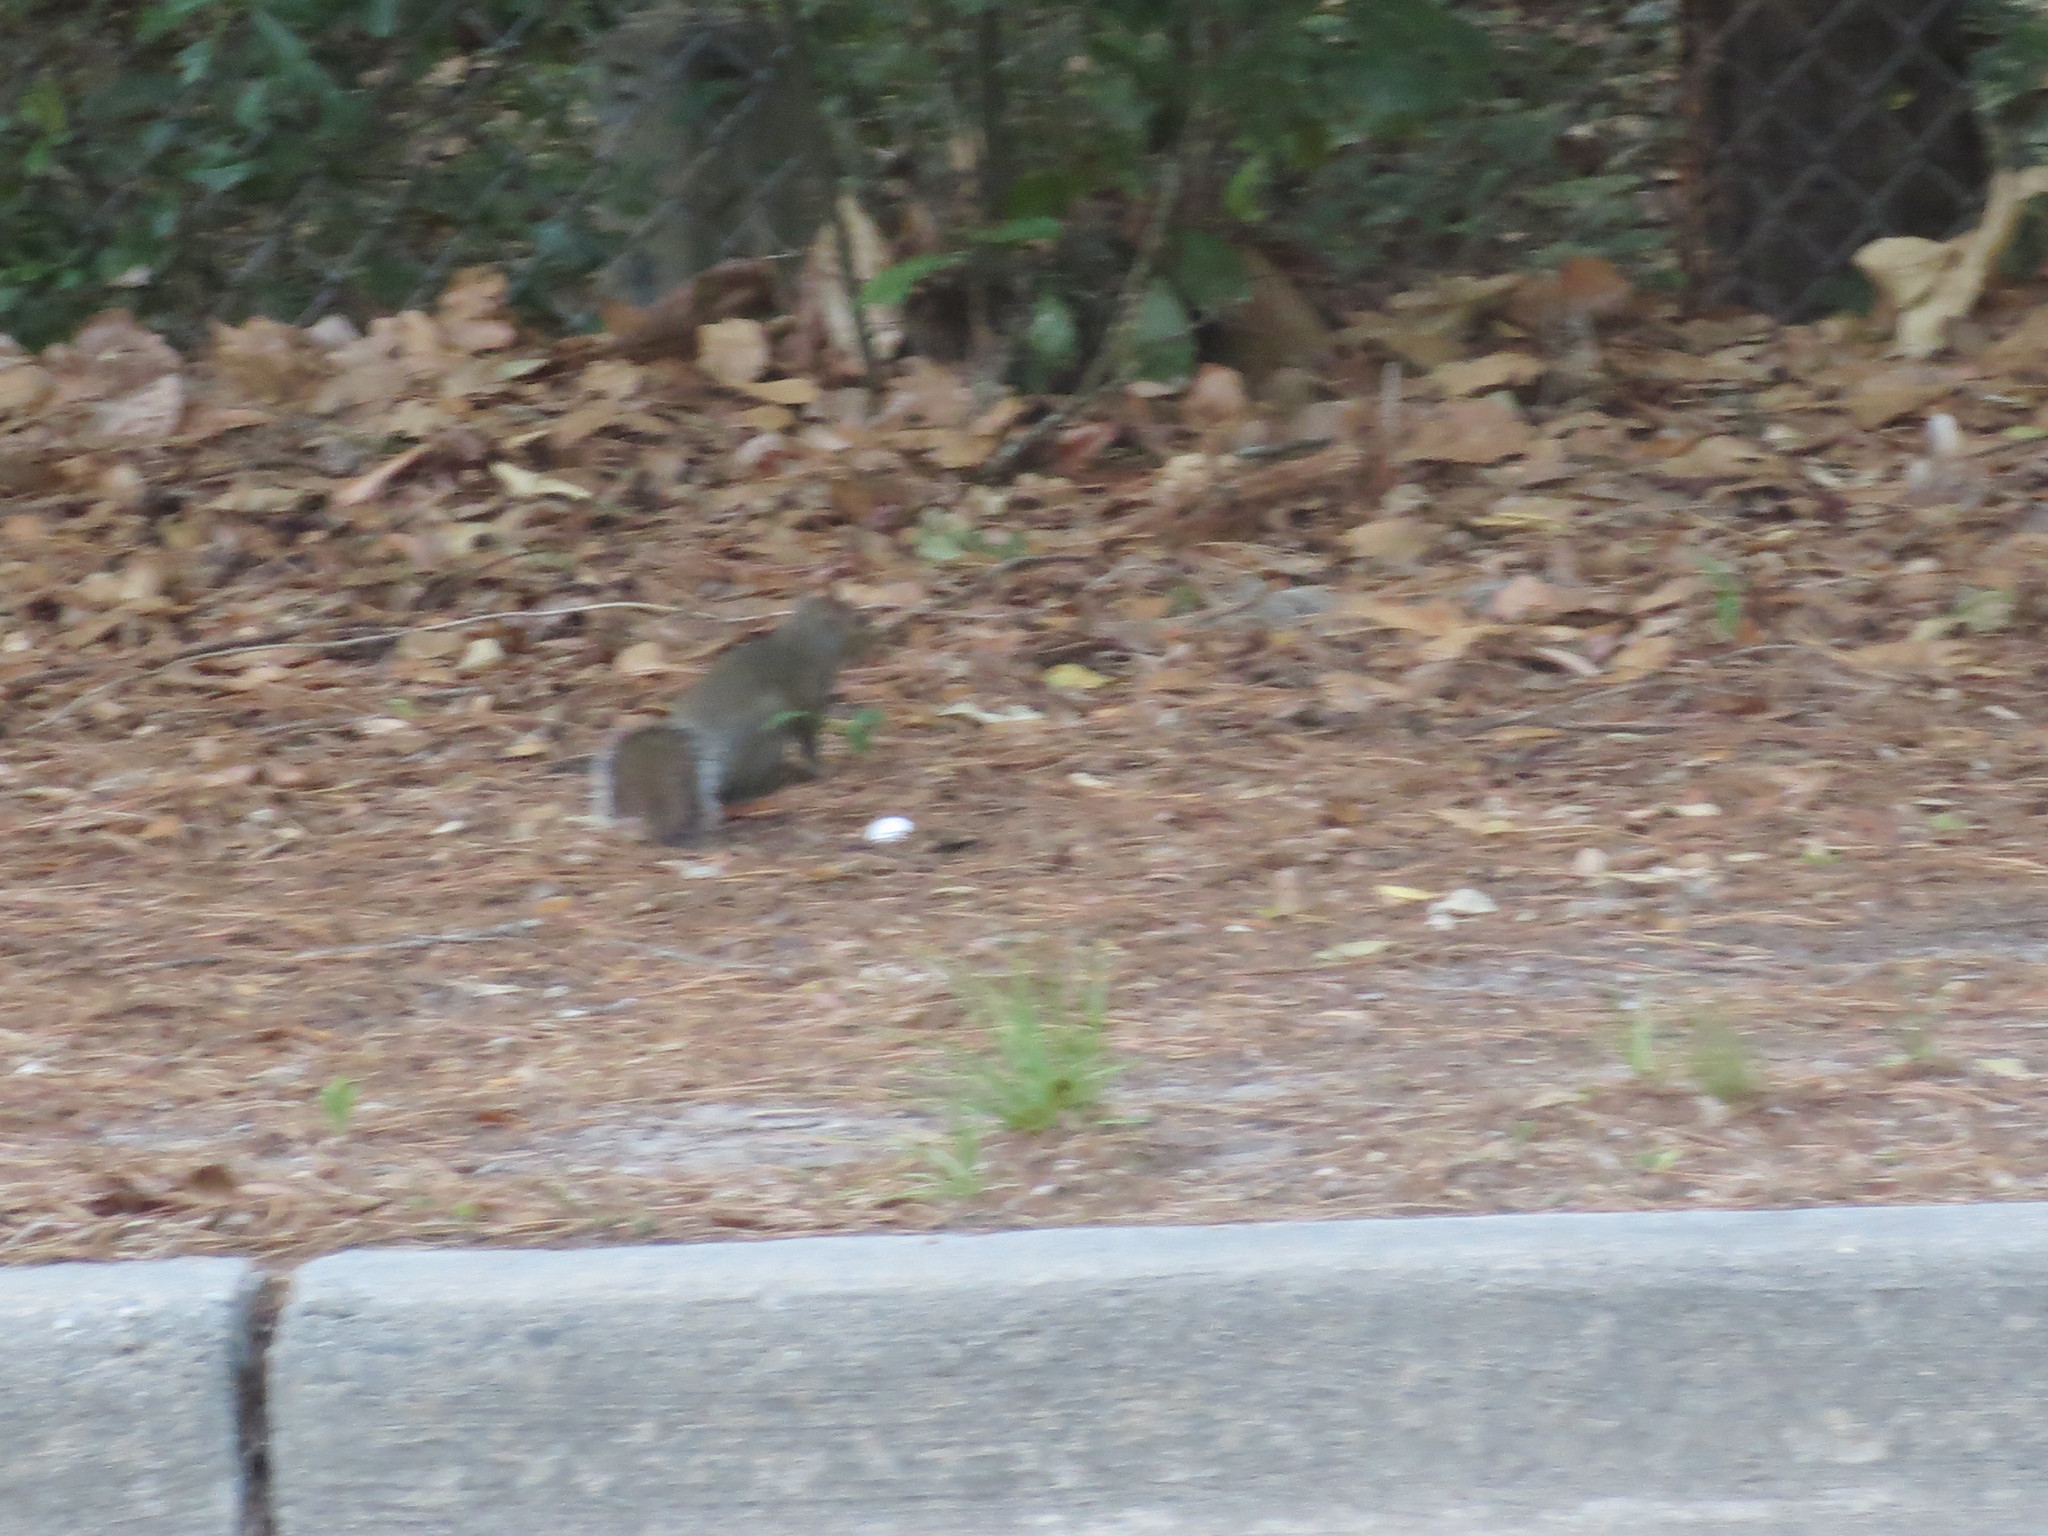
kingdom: Animalia
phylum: Chordata
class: Mammalia
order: Rodentia
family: Sciuridae
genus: Sciurus
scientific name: Sciurus carolinensis
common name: Eastern gray squirrel
